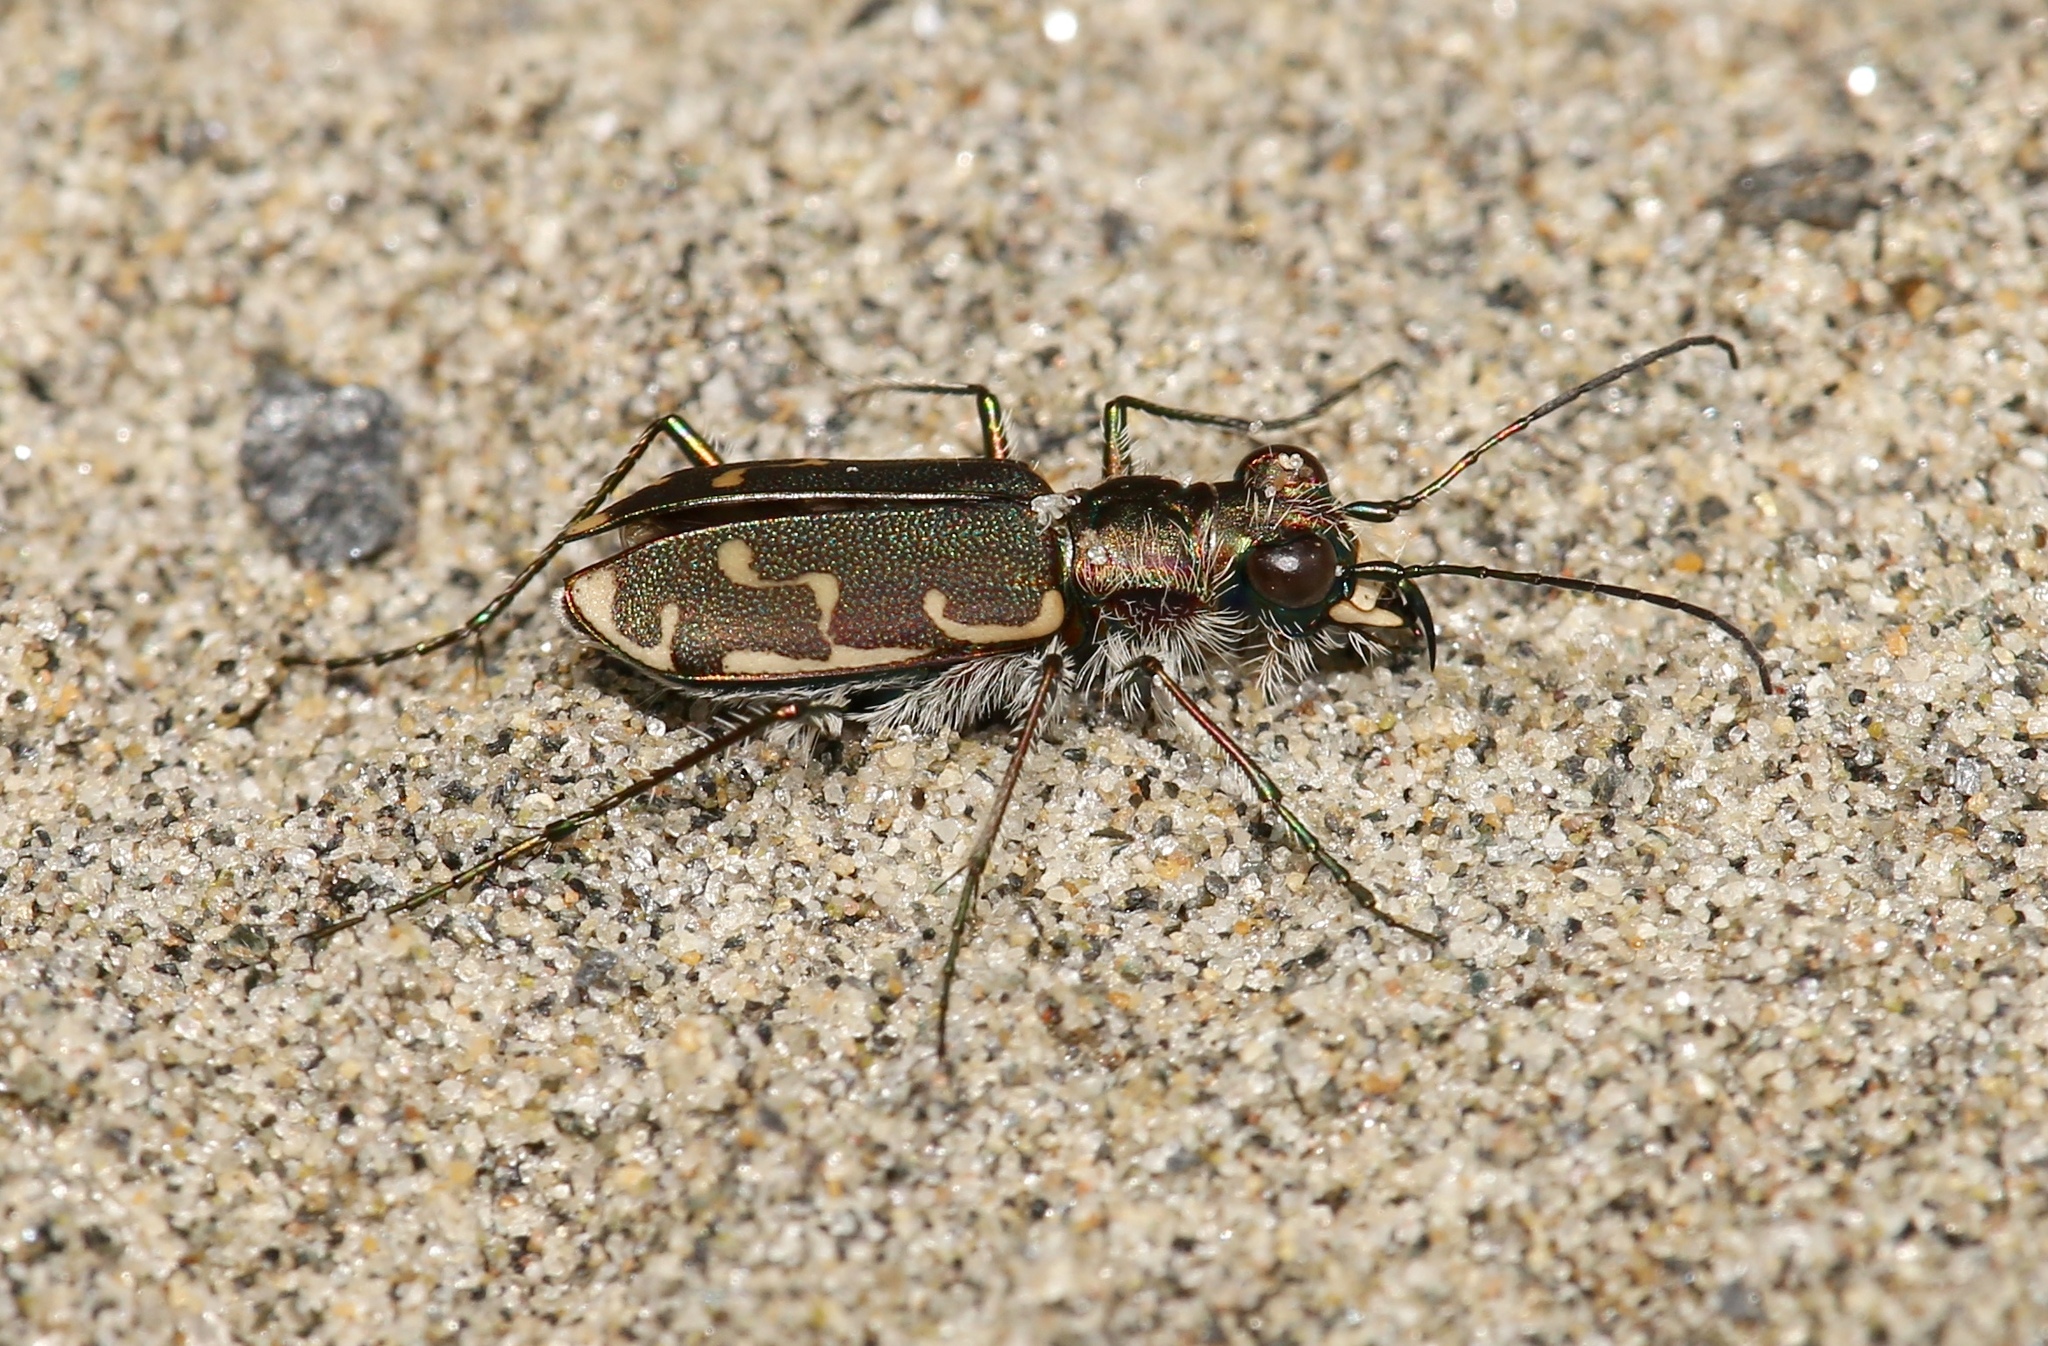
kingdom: Animalia
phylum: Arthropoda
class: Insecta
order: Coleoptera
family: Carabidae
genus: Cicindela
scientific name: Cicindela repanda
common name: Bronzed tiger beetle
